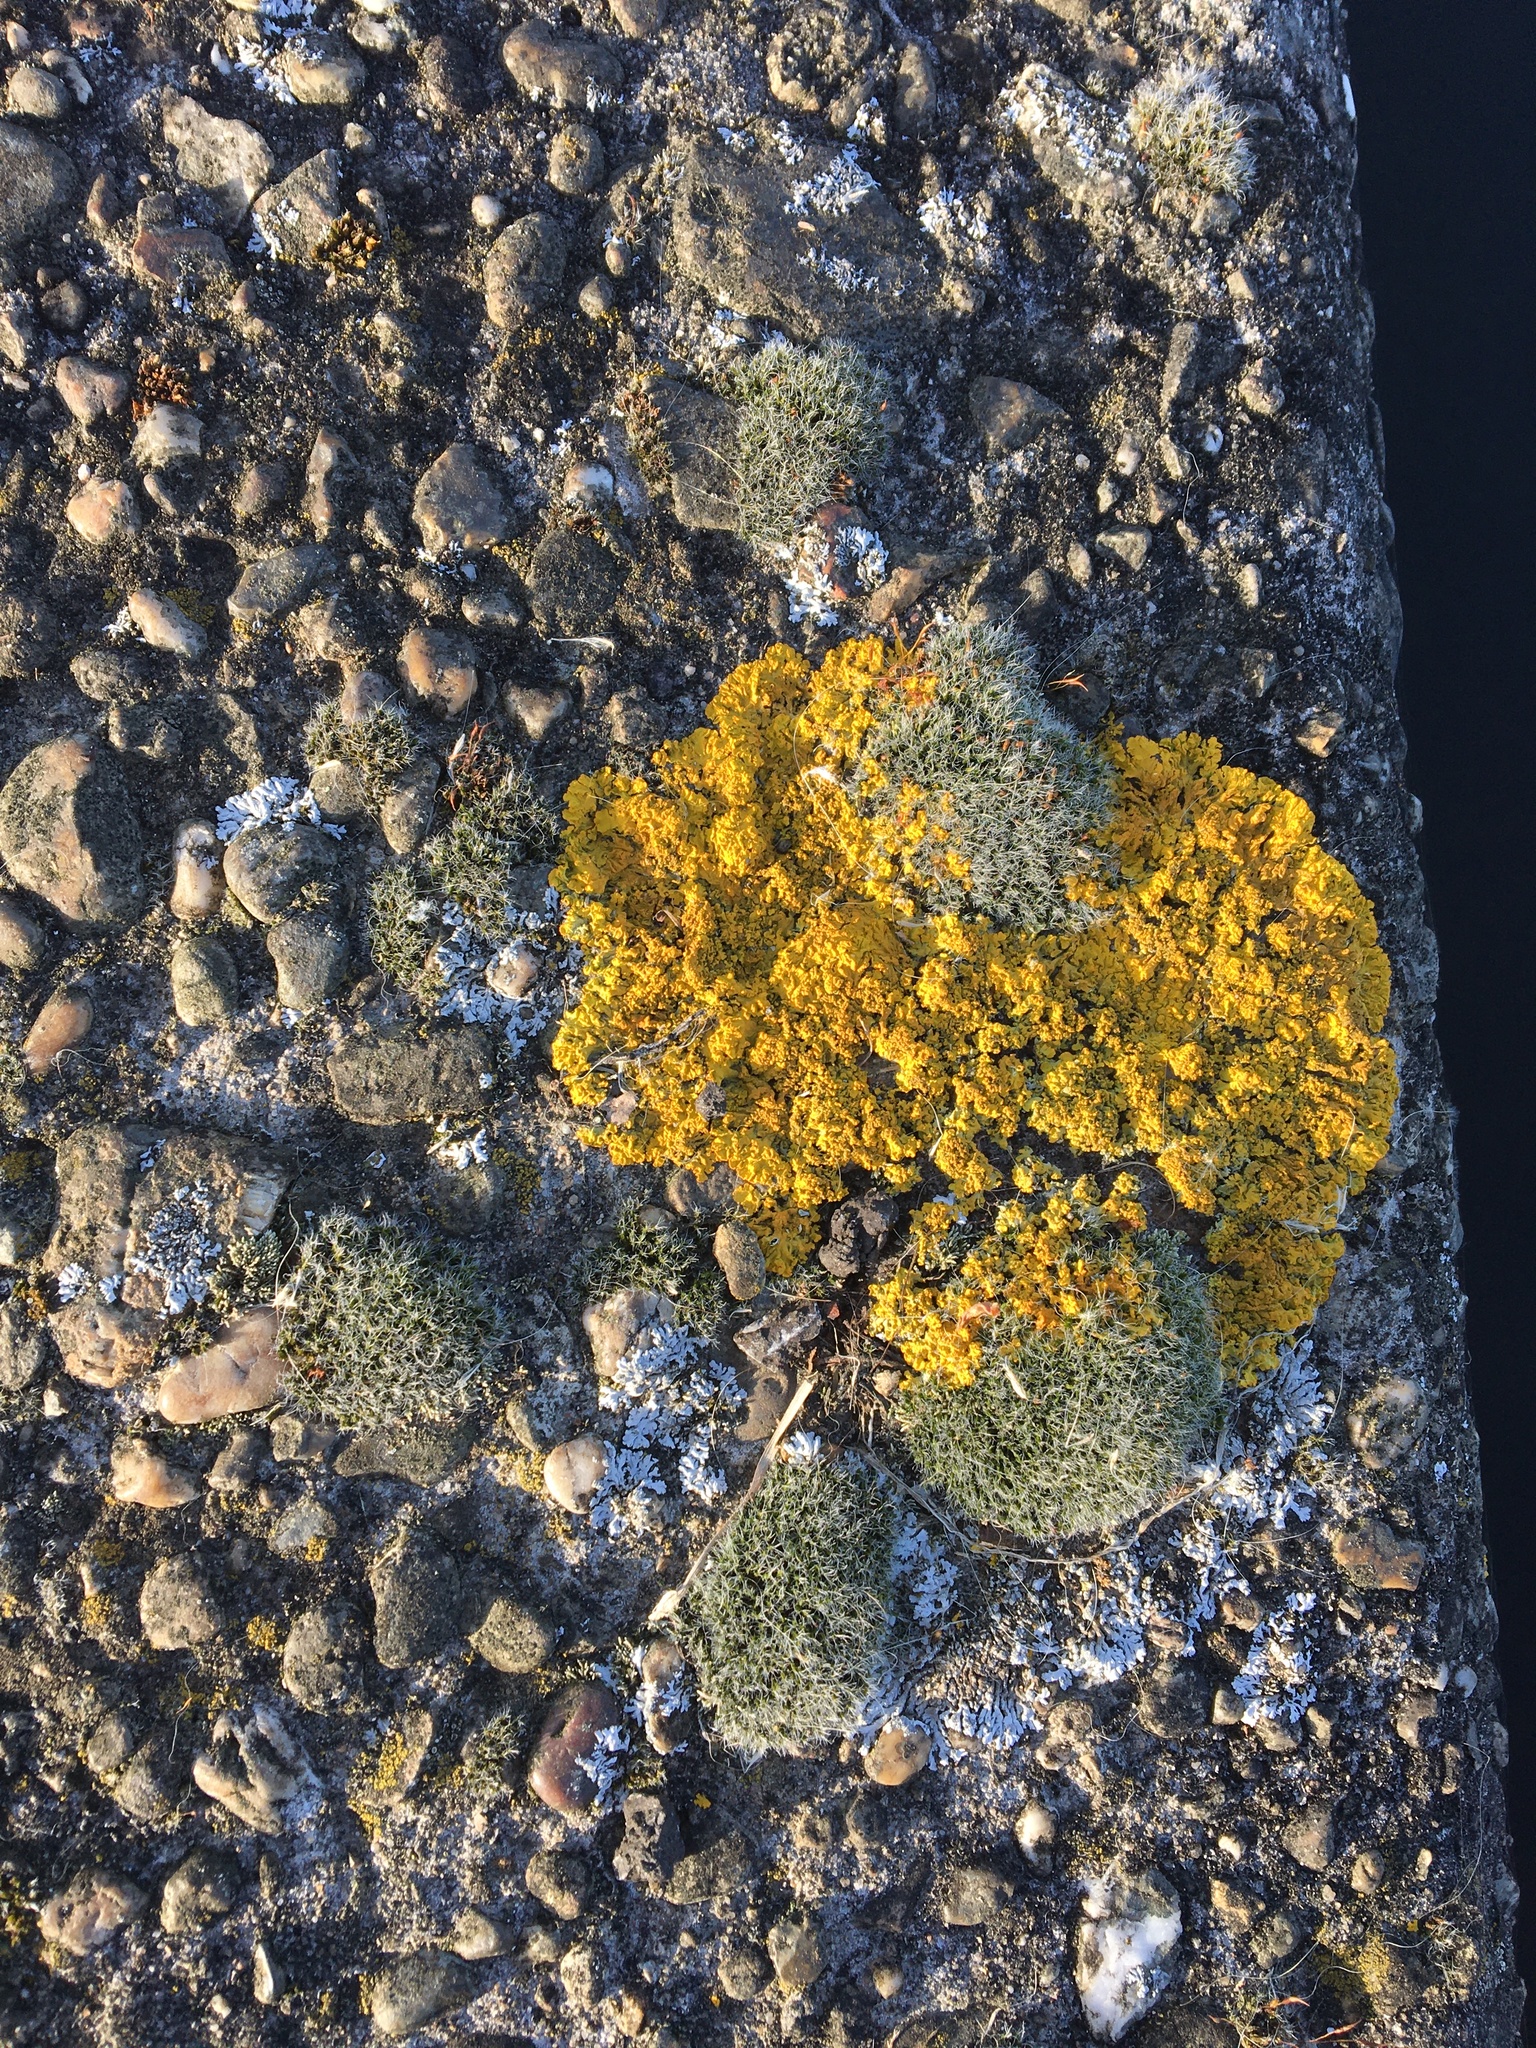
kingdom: Fungi
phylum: Ascomycota
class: Lecanoromycetes
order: Teloschistales
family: Teloschistaceae
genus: Xanthoria
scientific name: Xanthoria calcicola
